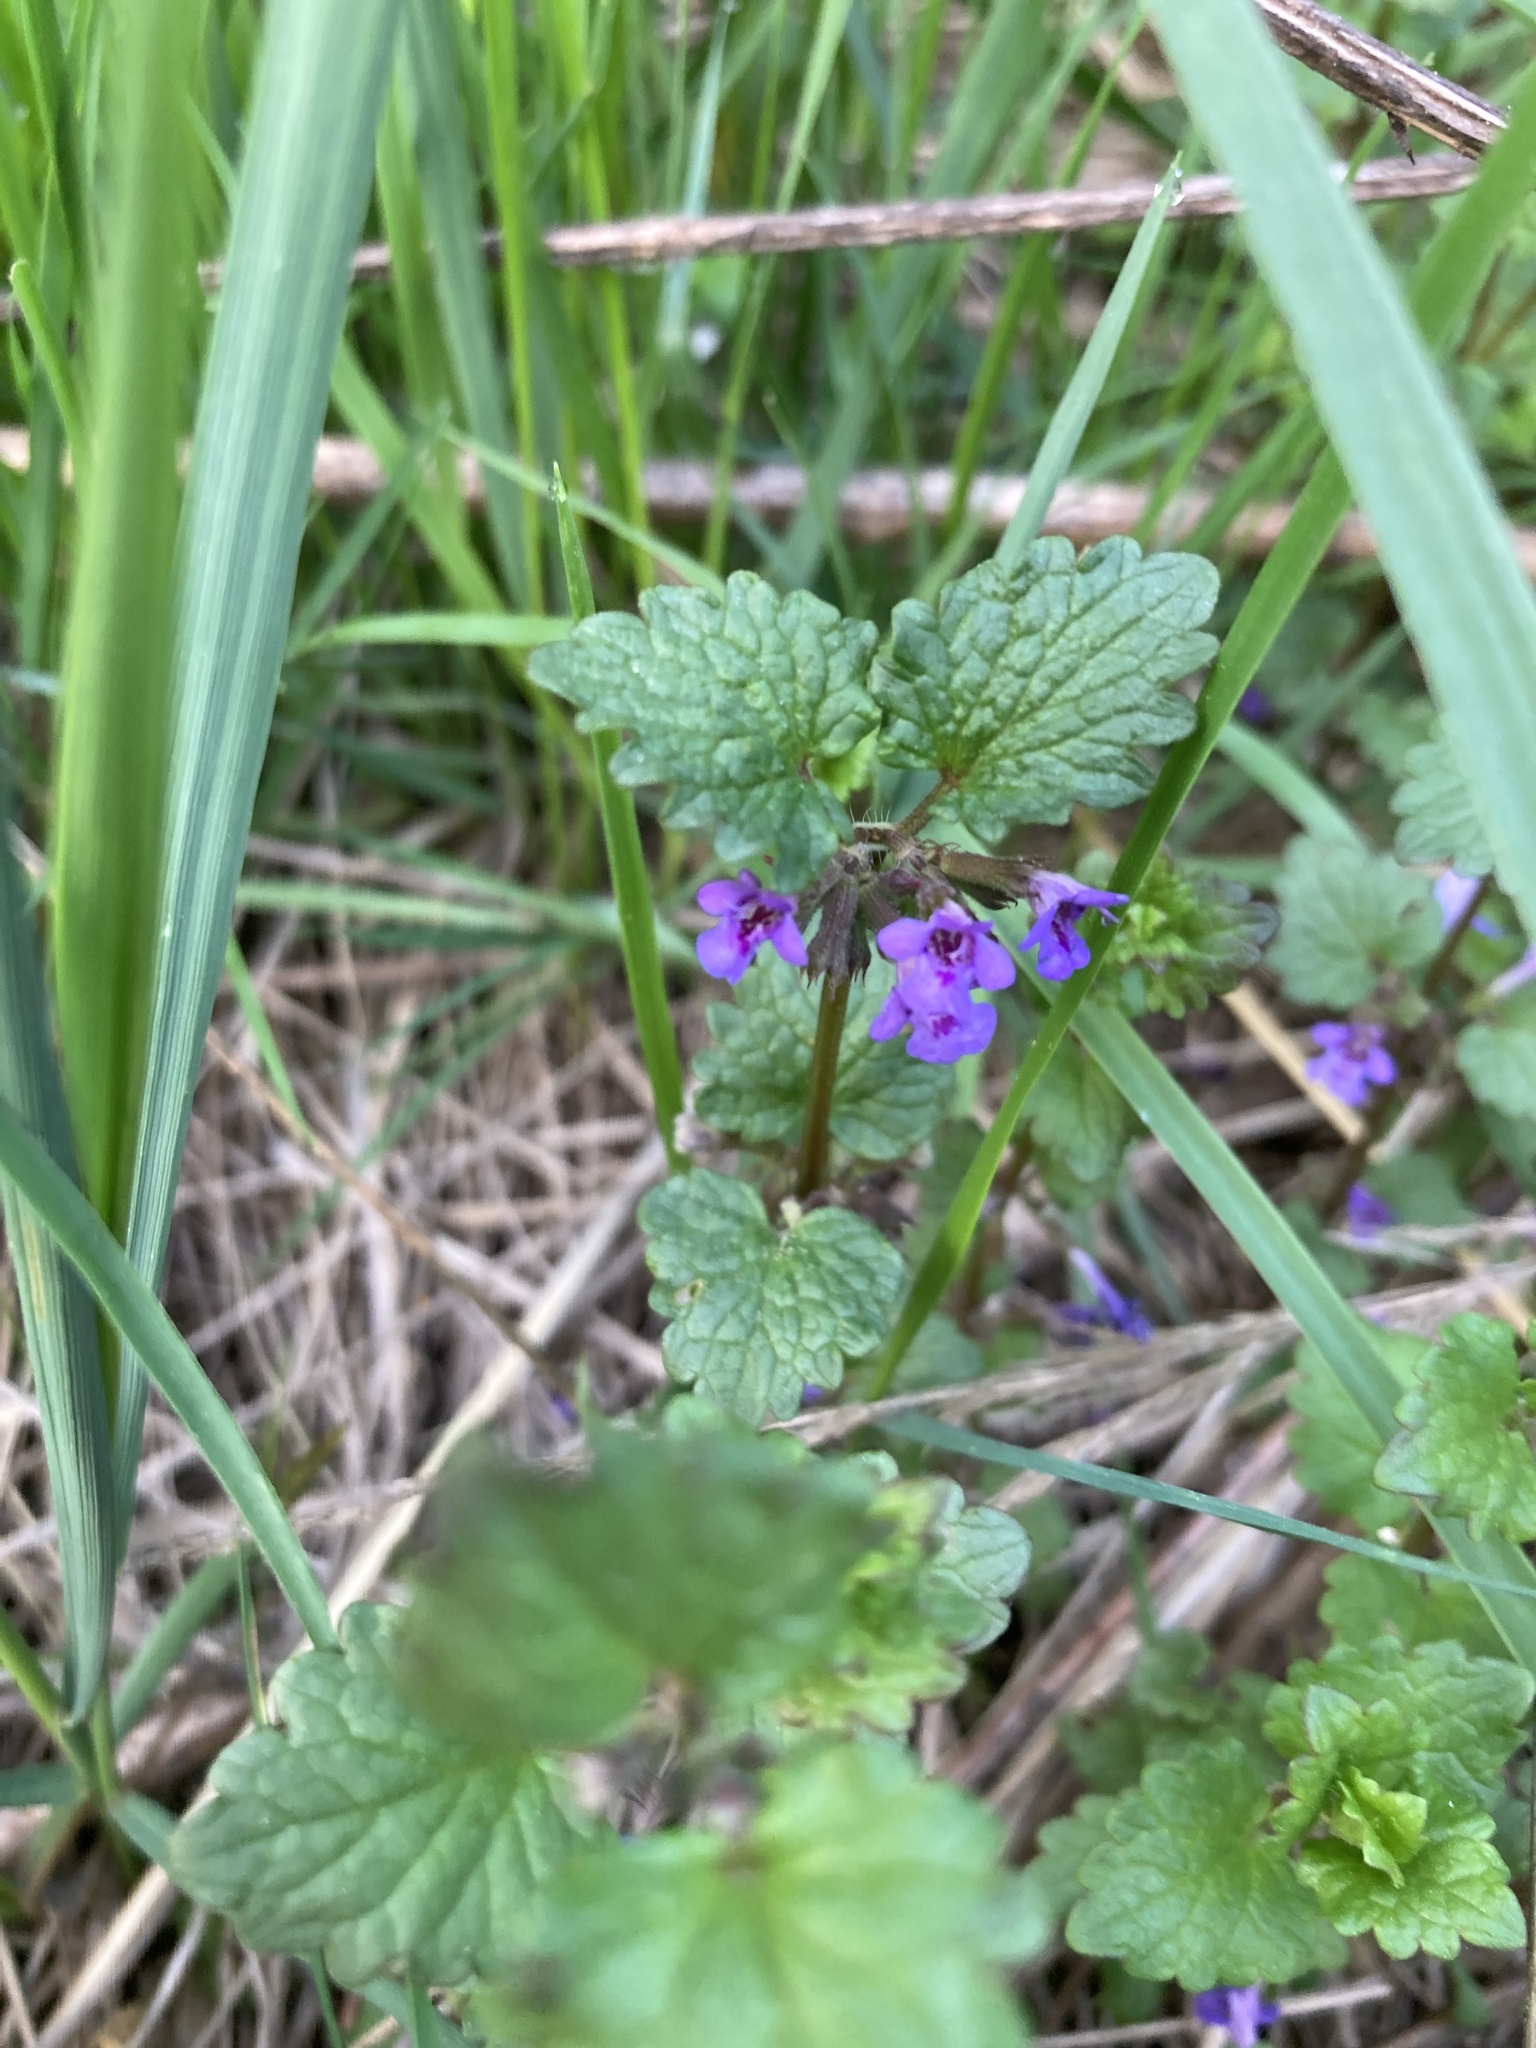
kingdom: Plantae
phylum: Tracheophyta
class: Magnoliopsida
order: Lamiales
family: Lamiaceae
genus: Glechoma
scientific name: Glechoma hederacea
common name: Ground ivy
